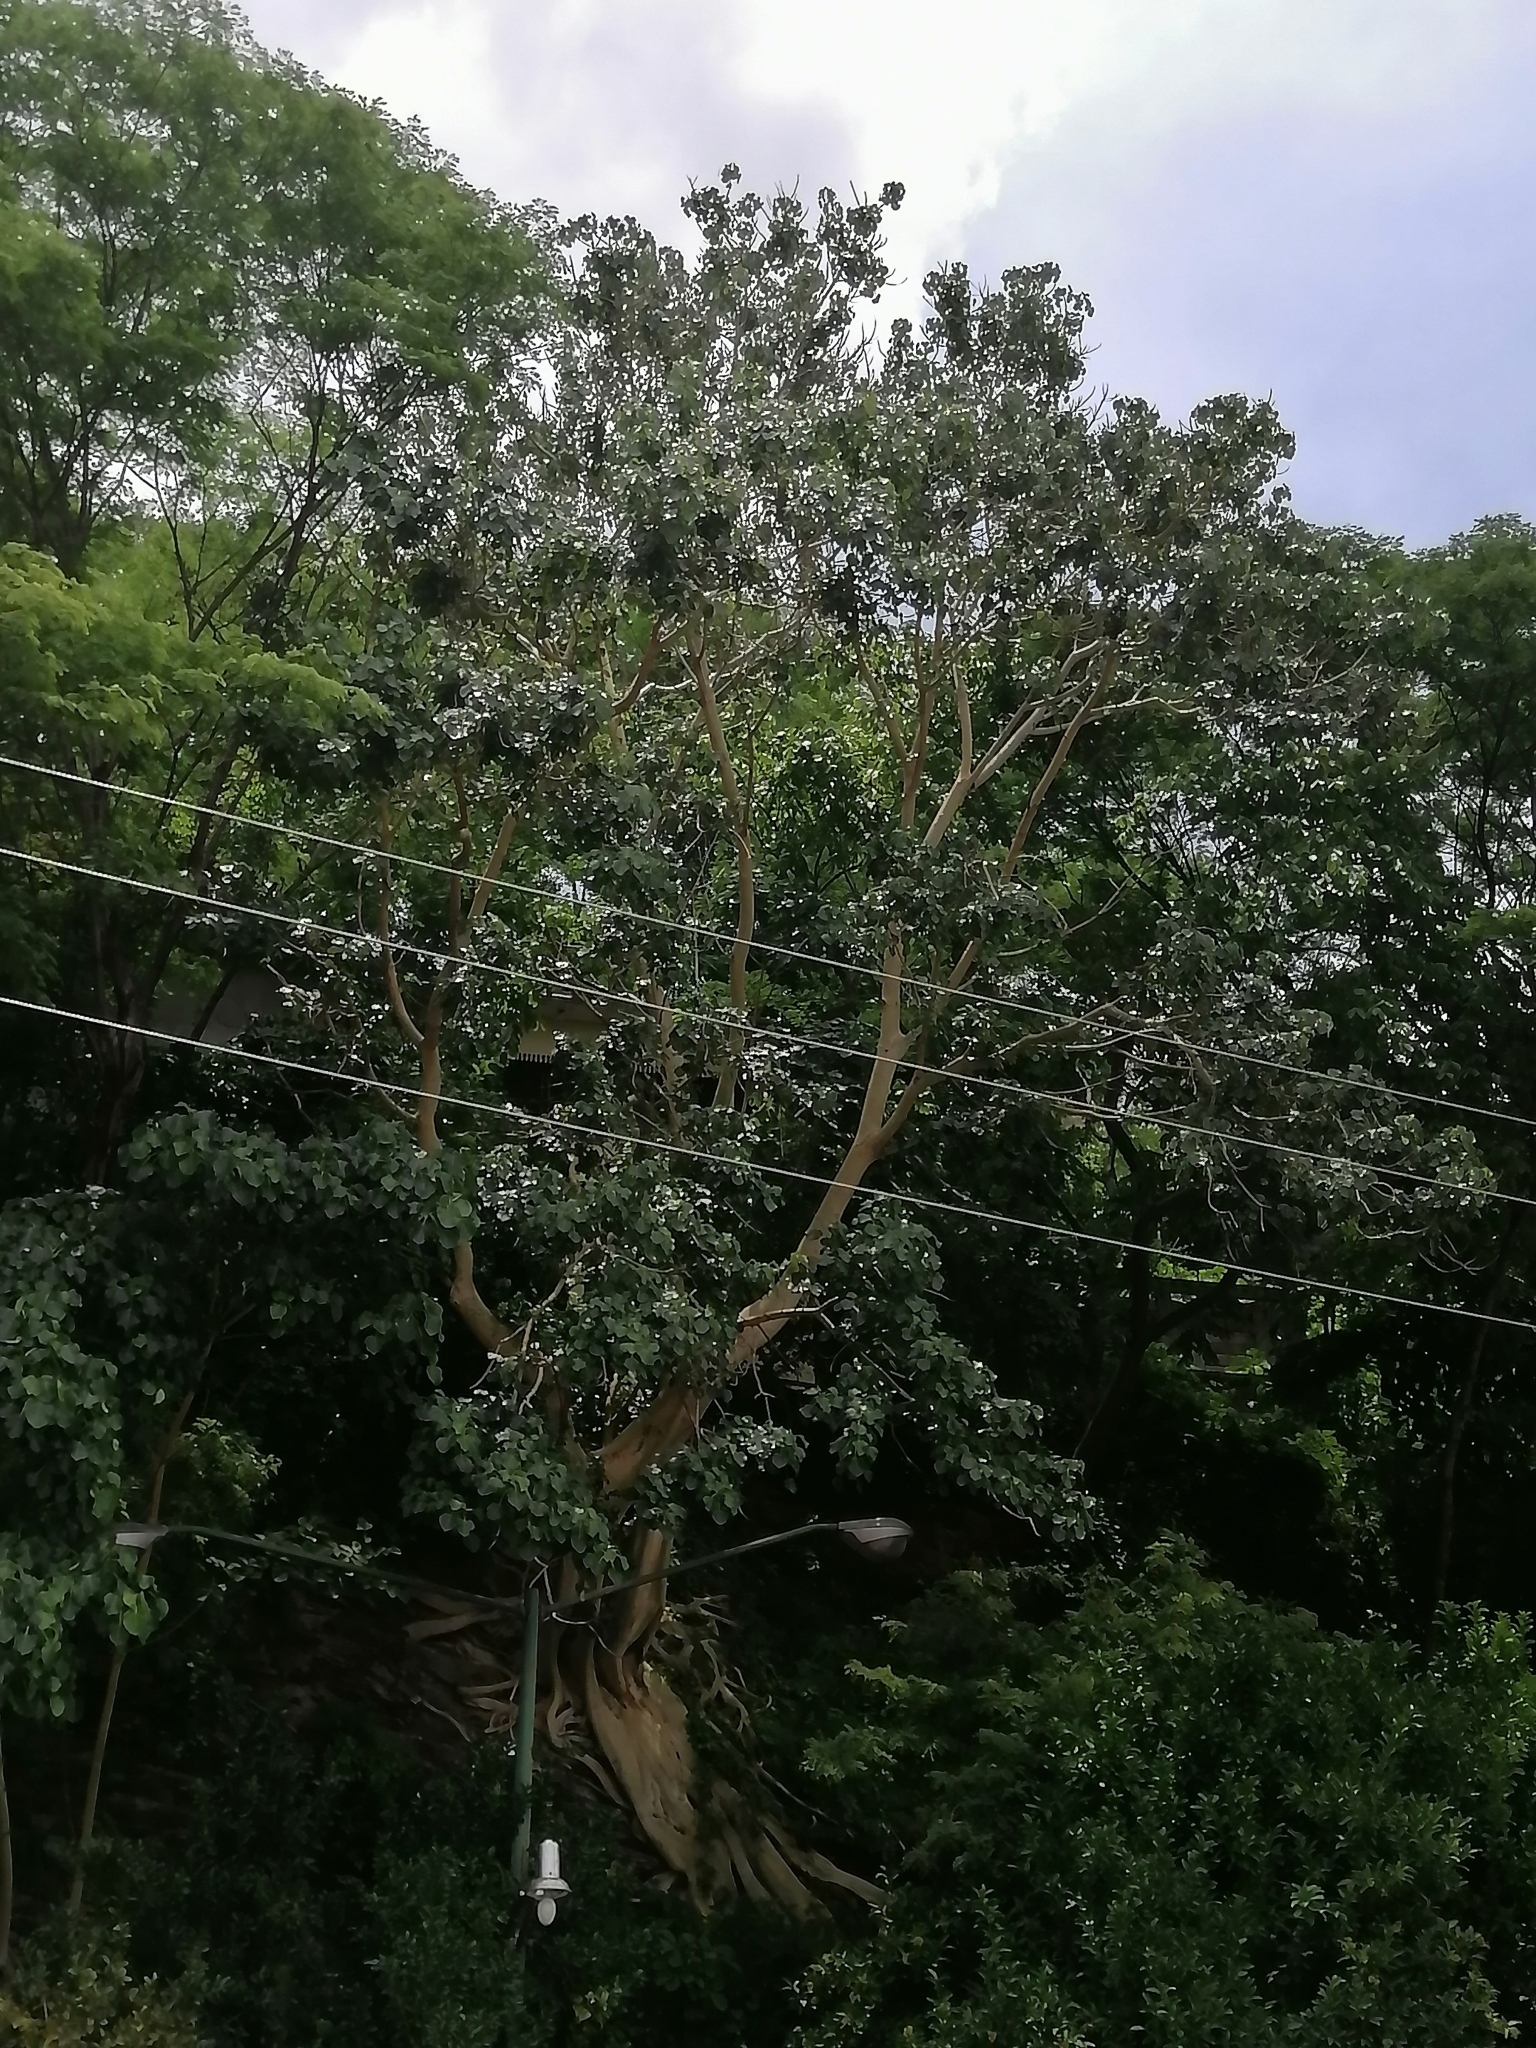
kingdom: Plantae
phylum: Tracheophyta
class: Magnoliopsida
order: Rosales
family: Moraceae
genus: Ficus
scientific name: Ficus petiolaris
